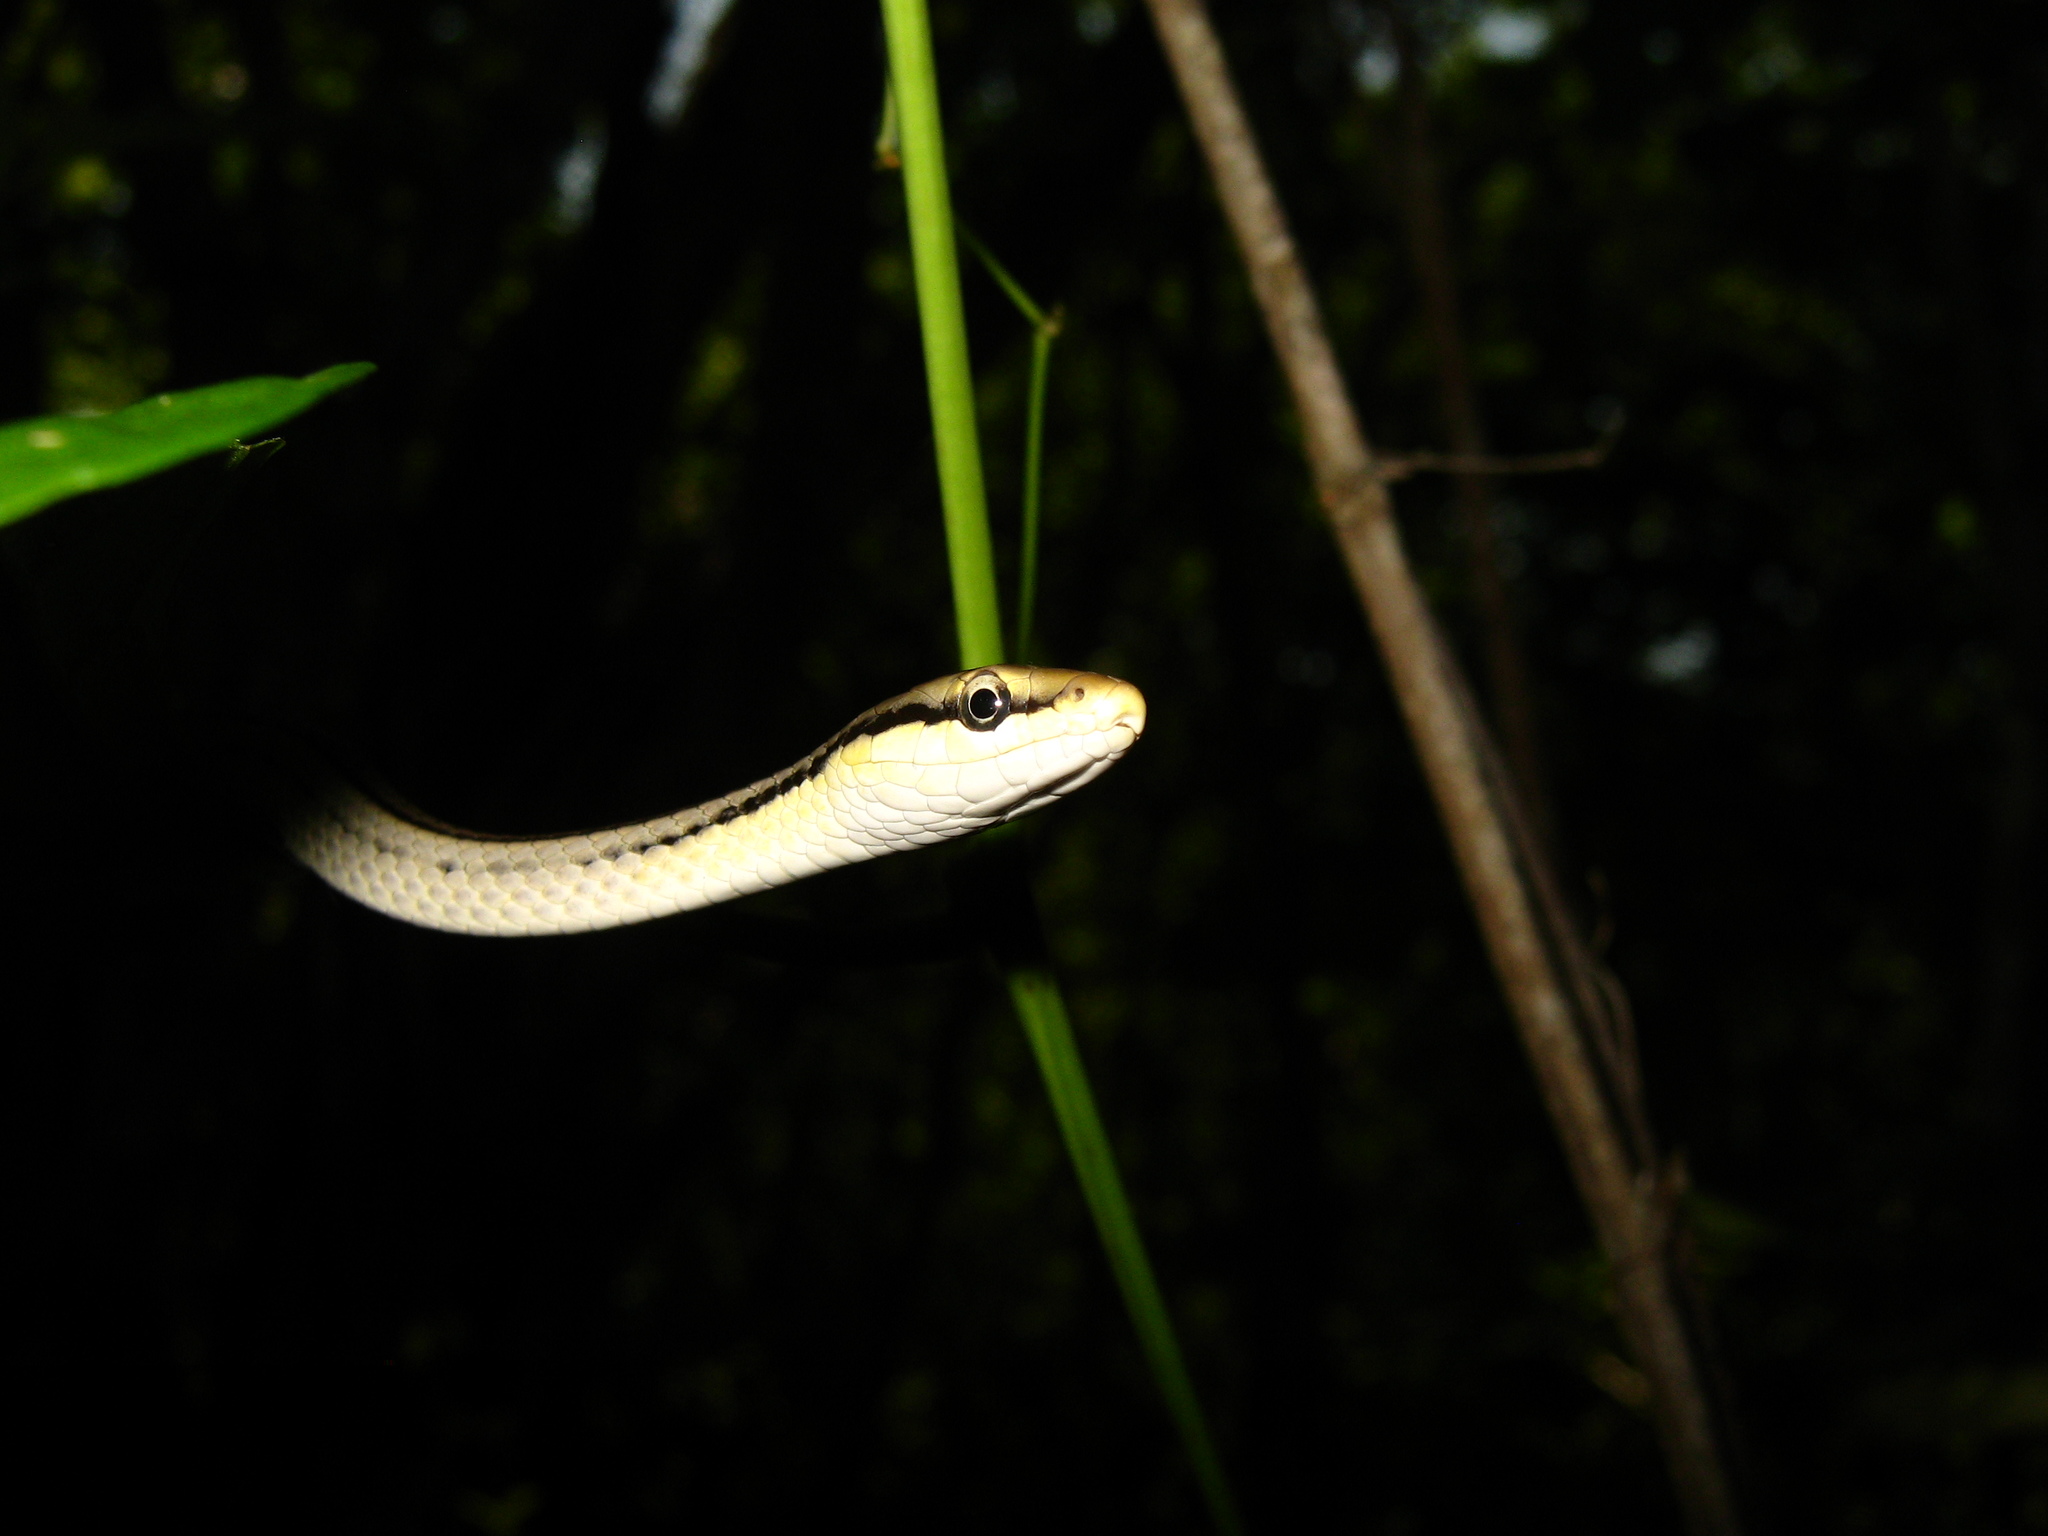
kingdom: Animalia
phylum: Chordata
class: Squamata
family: Colubridae
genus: Symphimus
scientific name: Symphimus leucostomus
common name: Mexican white-lipped snake
